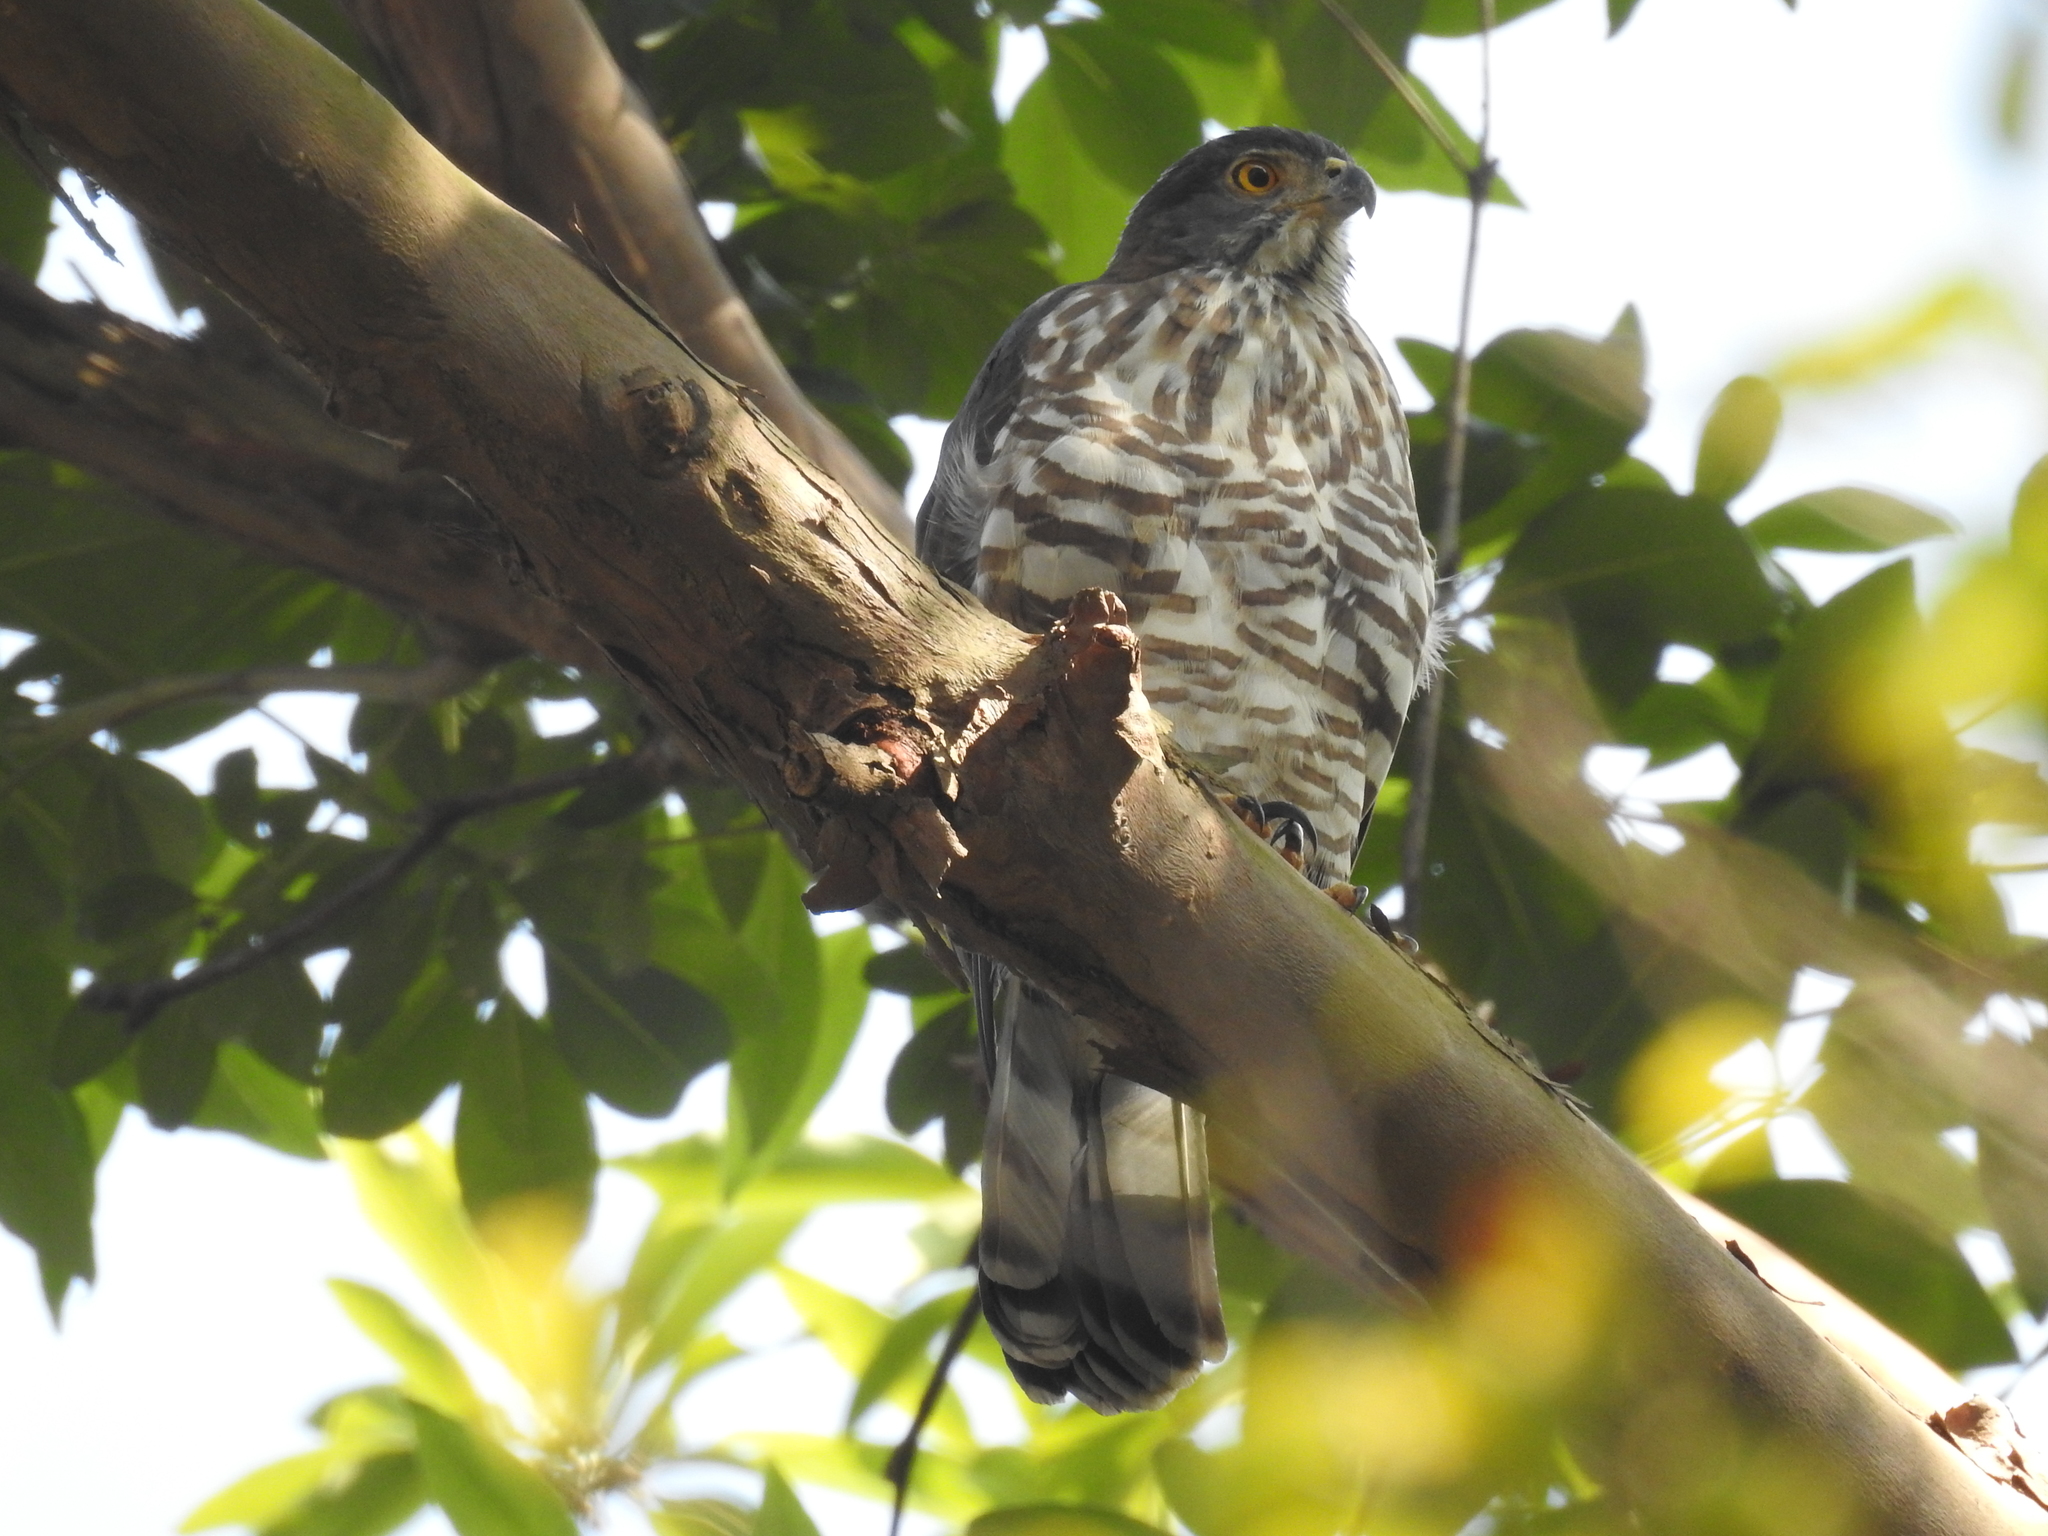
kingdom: Animalia
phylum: Chordata
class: Aves
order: Accipitriformes
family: Accipitridae
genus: Accipiter
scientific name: Accipiter trivirgatus
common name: Crested goshawk
